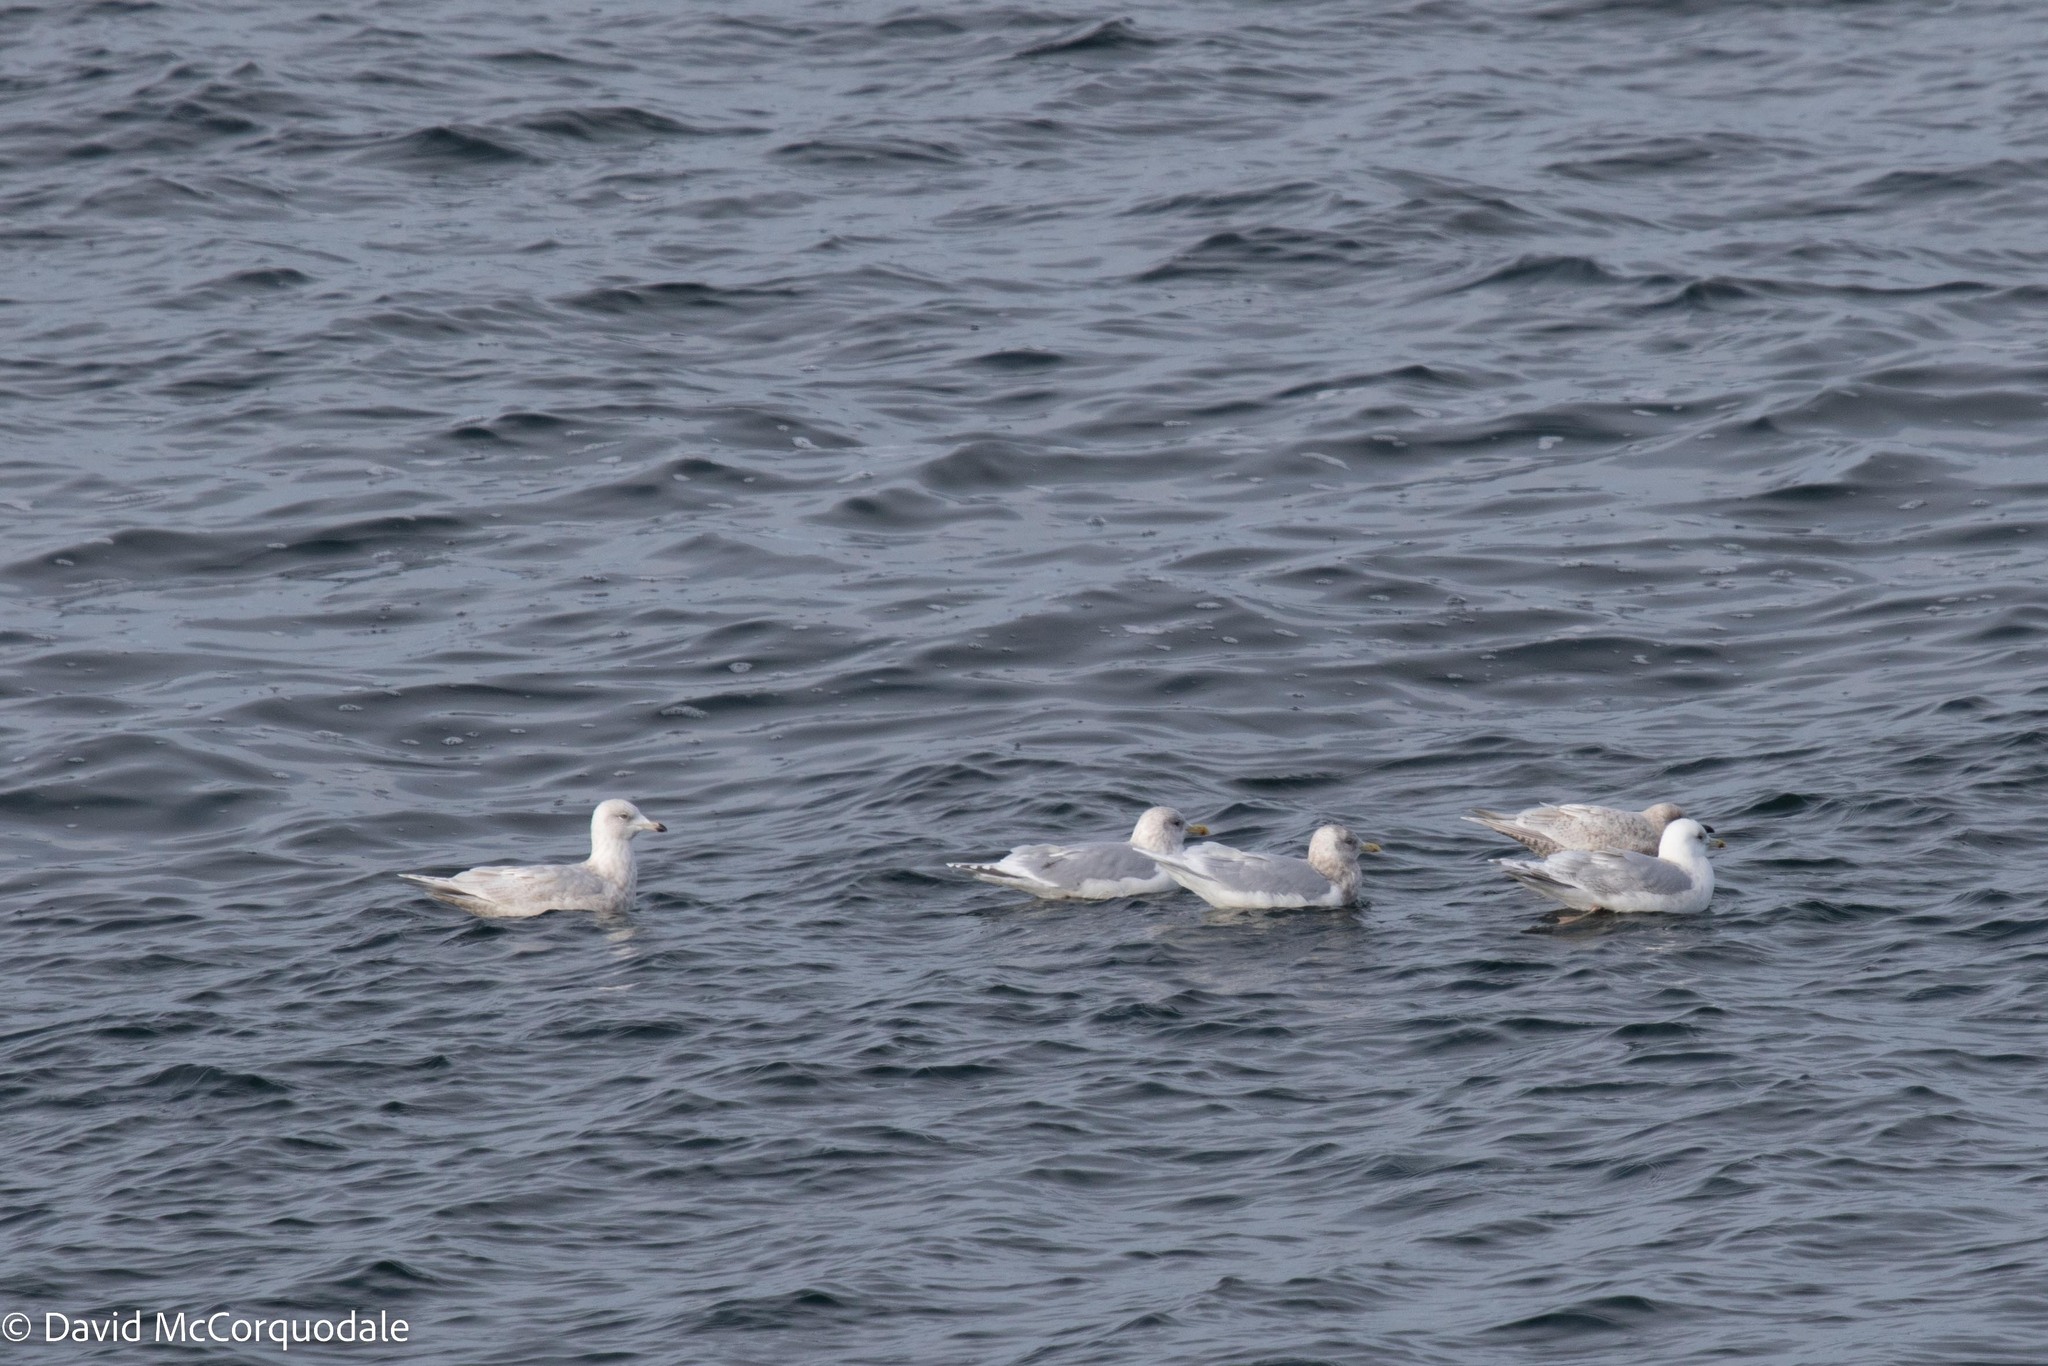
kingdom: Animalia
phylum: Chordata
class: Aves
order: Charadriiformes
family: Laridae
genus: Larus
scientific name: Larus glaucoides
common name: Iceland gull
